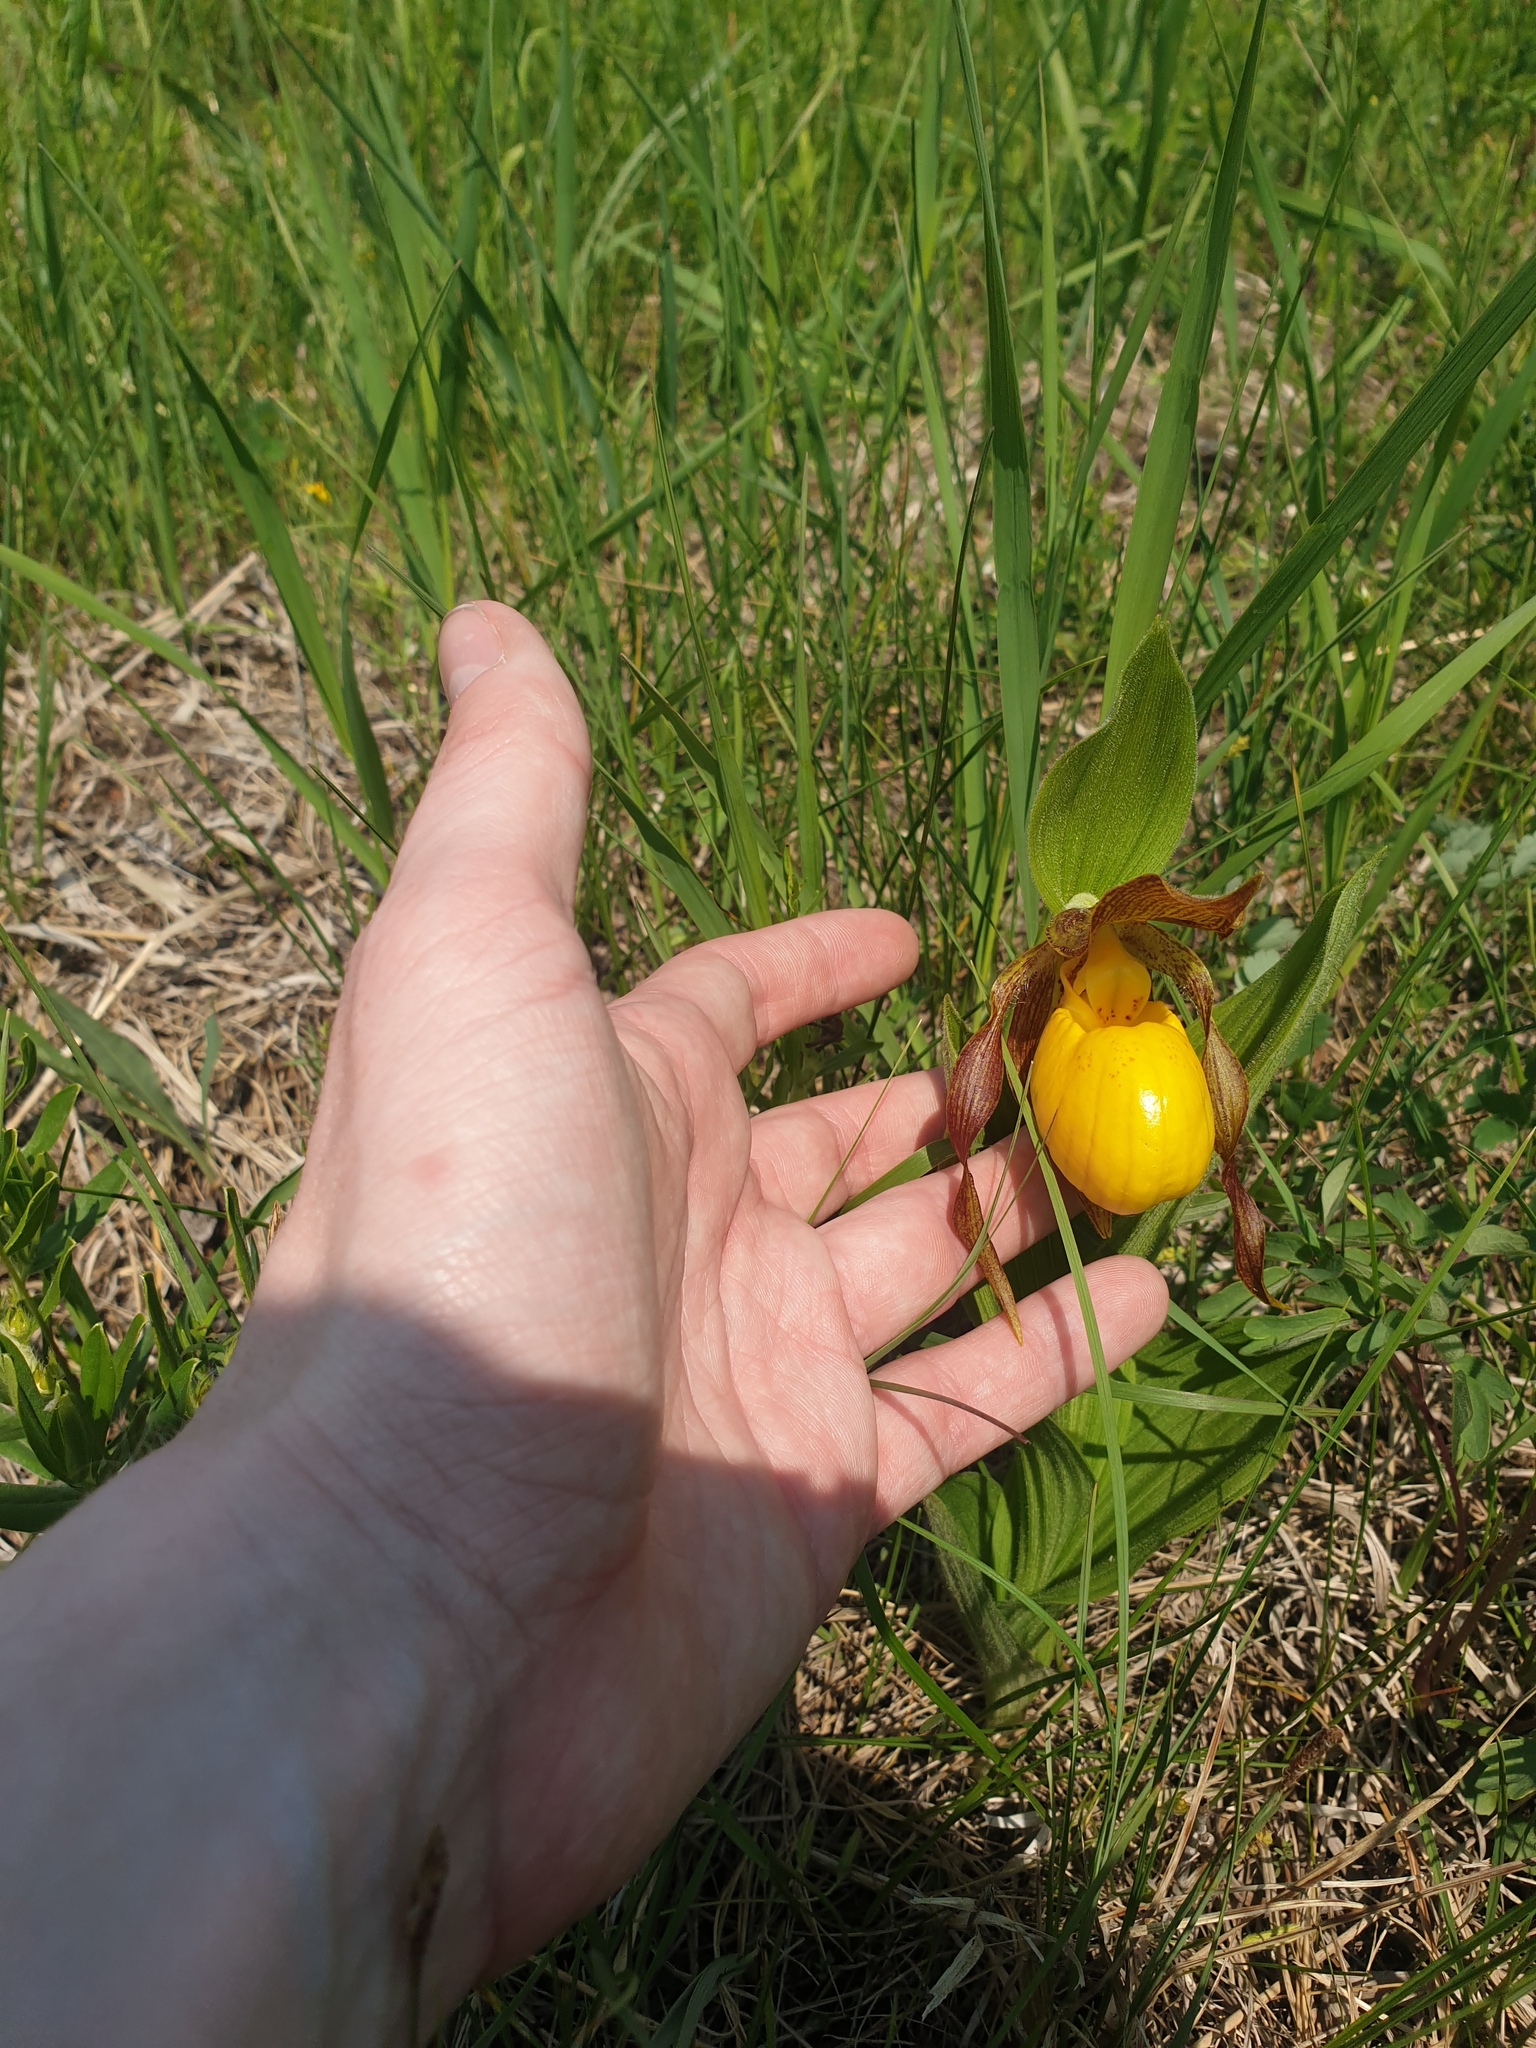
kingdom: Plantae
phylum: Tracheophyta
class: Liliopsida
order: Asparagales
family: Orchidaceae
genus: Cypripedium
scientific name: Cypripedium parviflorum
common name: American yellow lady's-slipper
